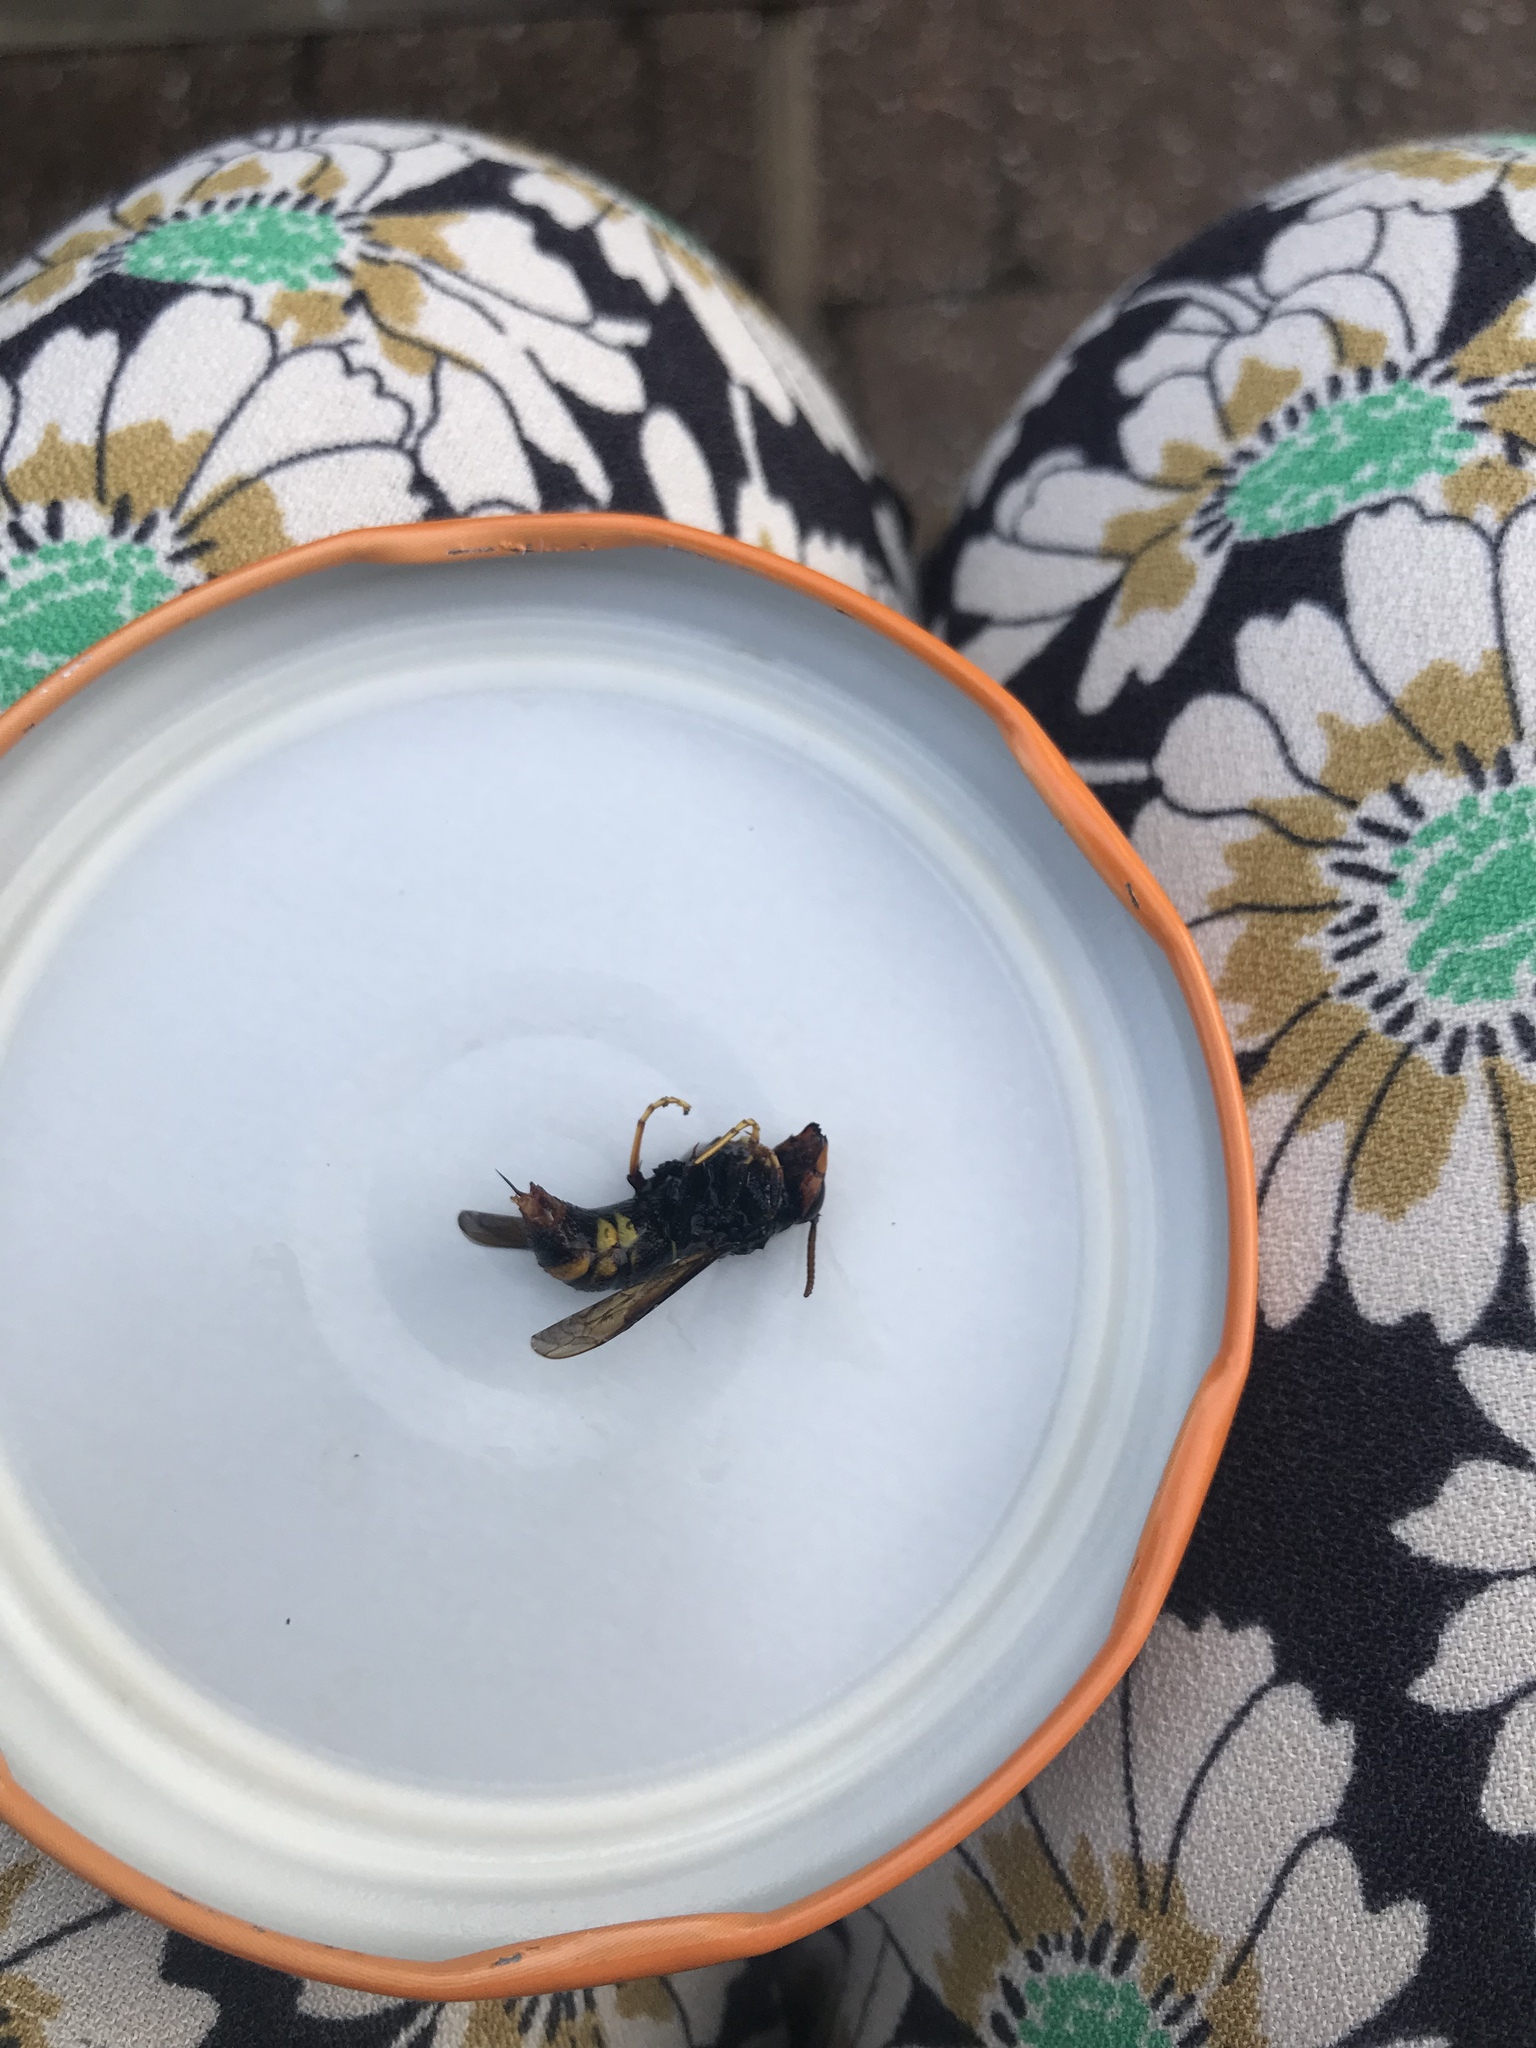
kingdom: Animalia
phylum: Arthropoda
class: Insecta
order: Hymenoptera
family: Vespidae
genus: Vespa
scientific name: Vespa velutina
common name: Asian hornet
